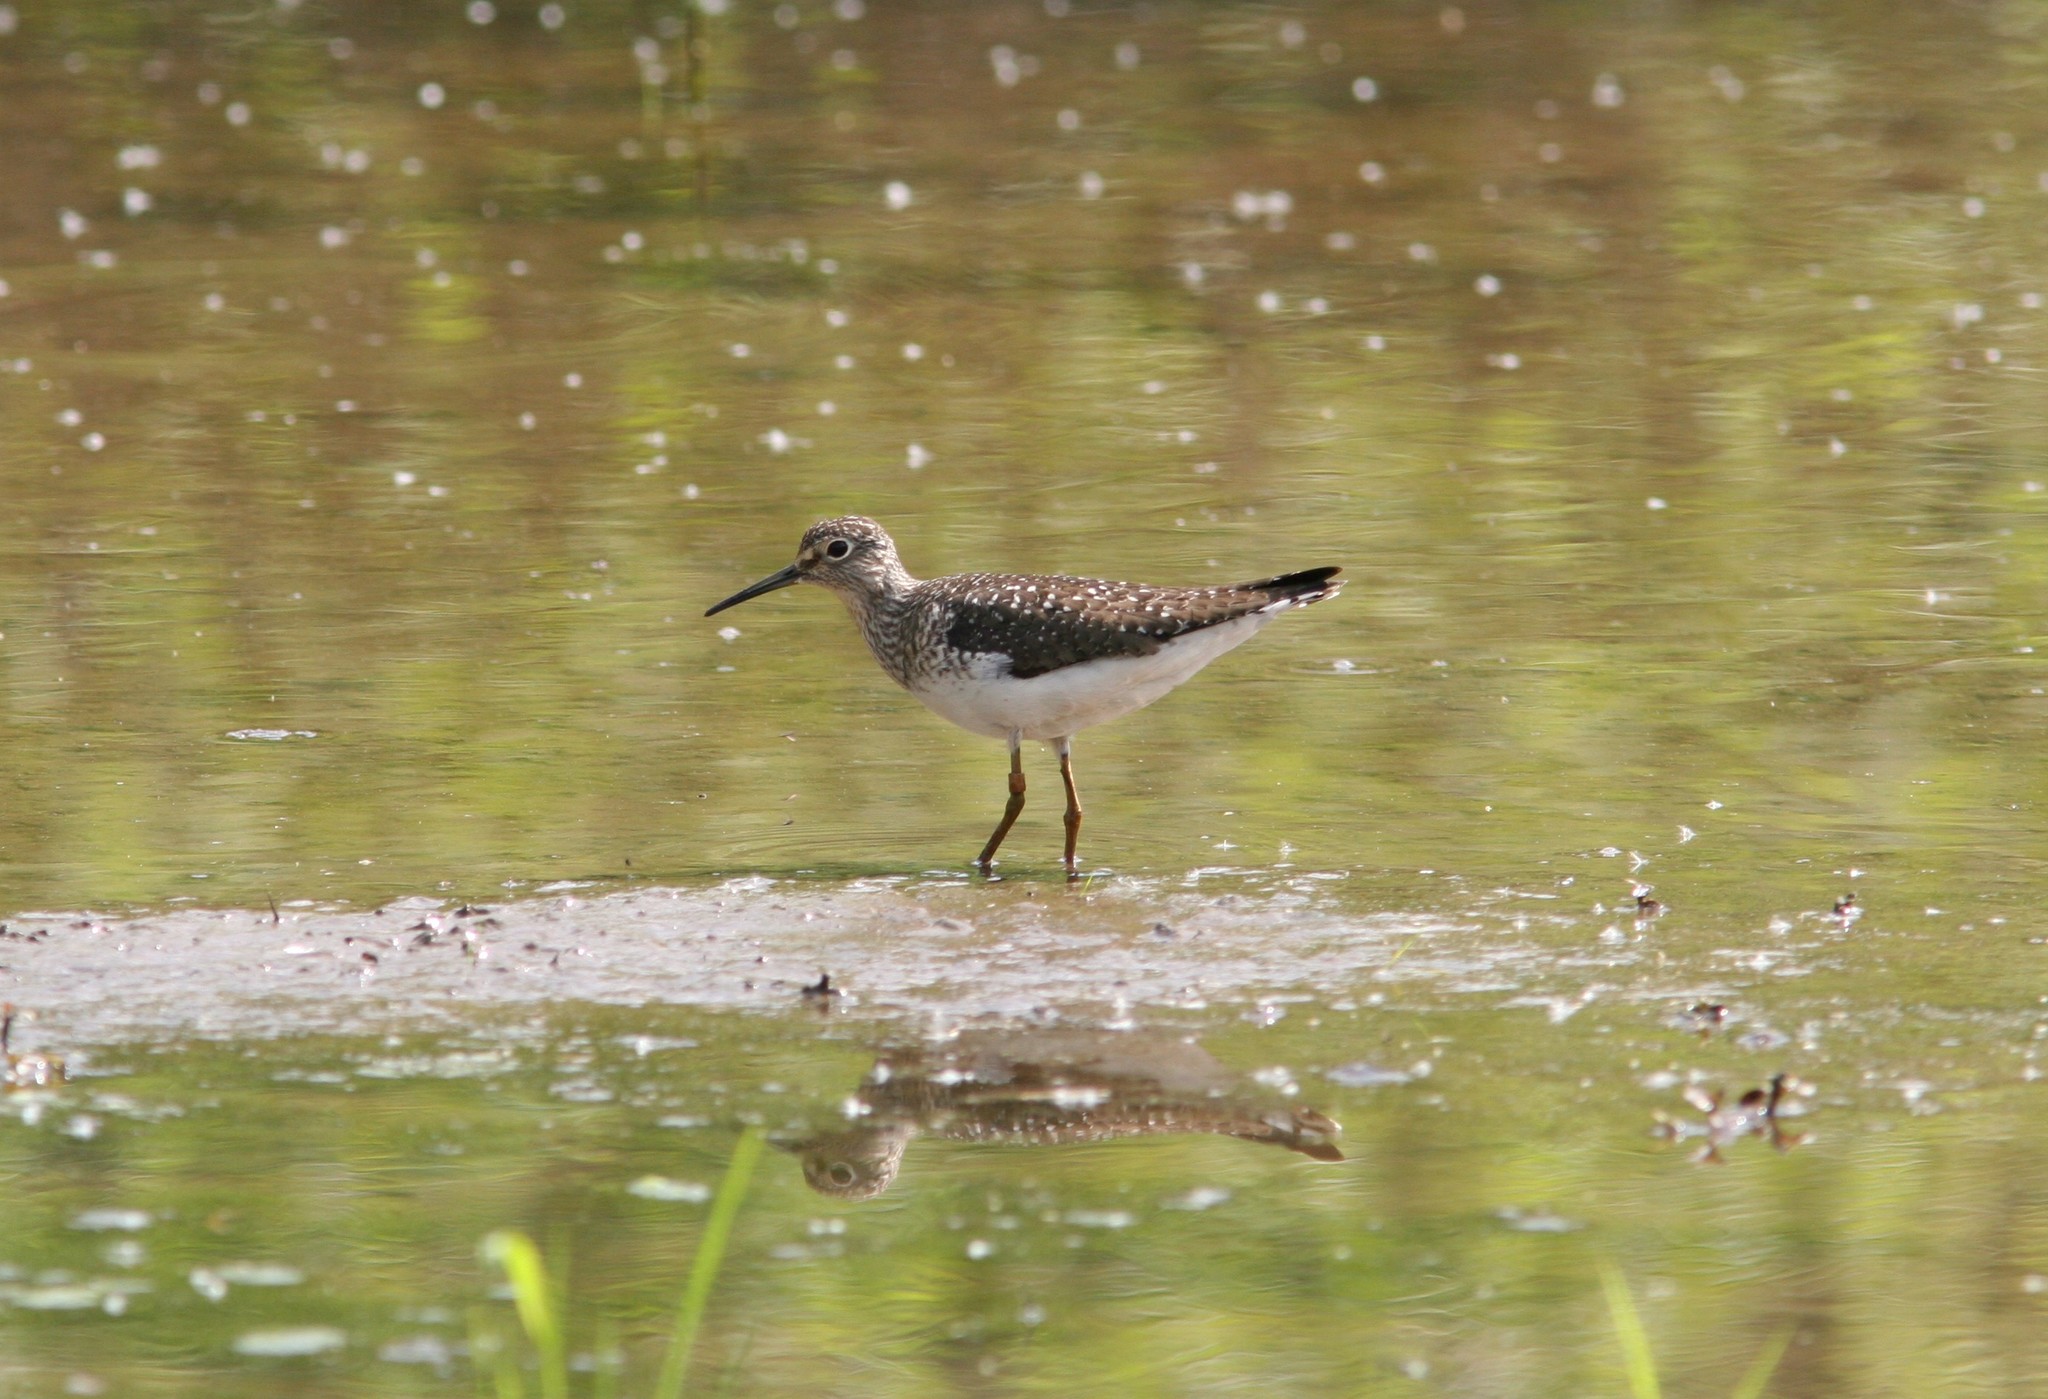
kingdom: Animalia
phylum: Chordata
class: Aves
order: Charadriiformes
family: Scolopacidae
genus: Tringa
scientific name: Tringa solitaria
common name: Solitary sandpiper
